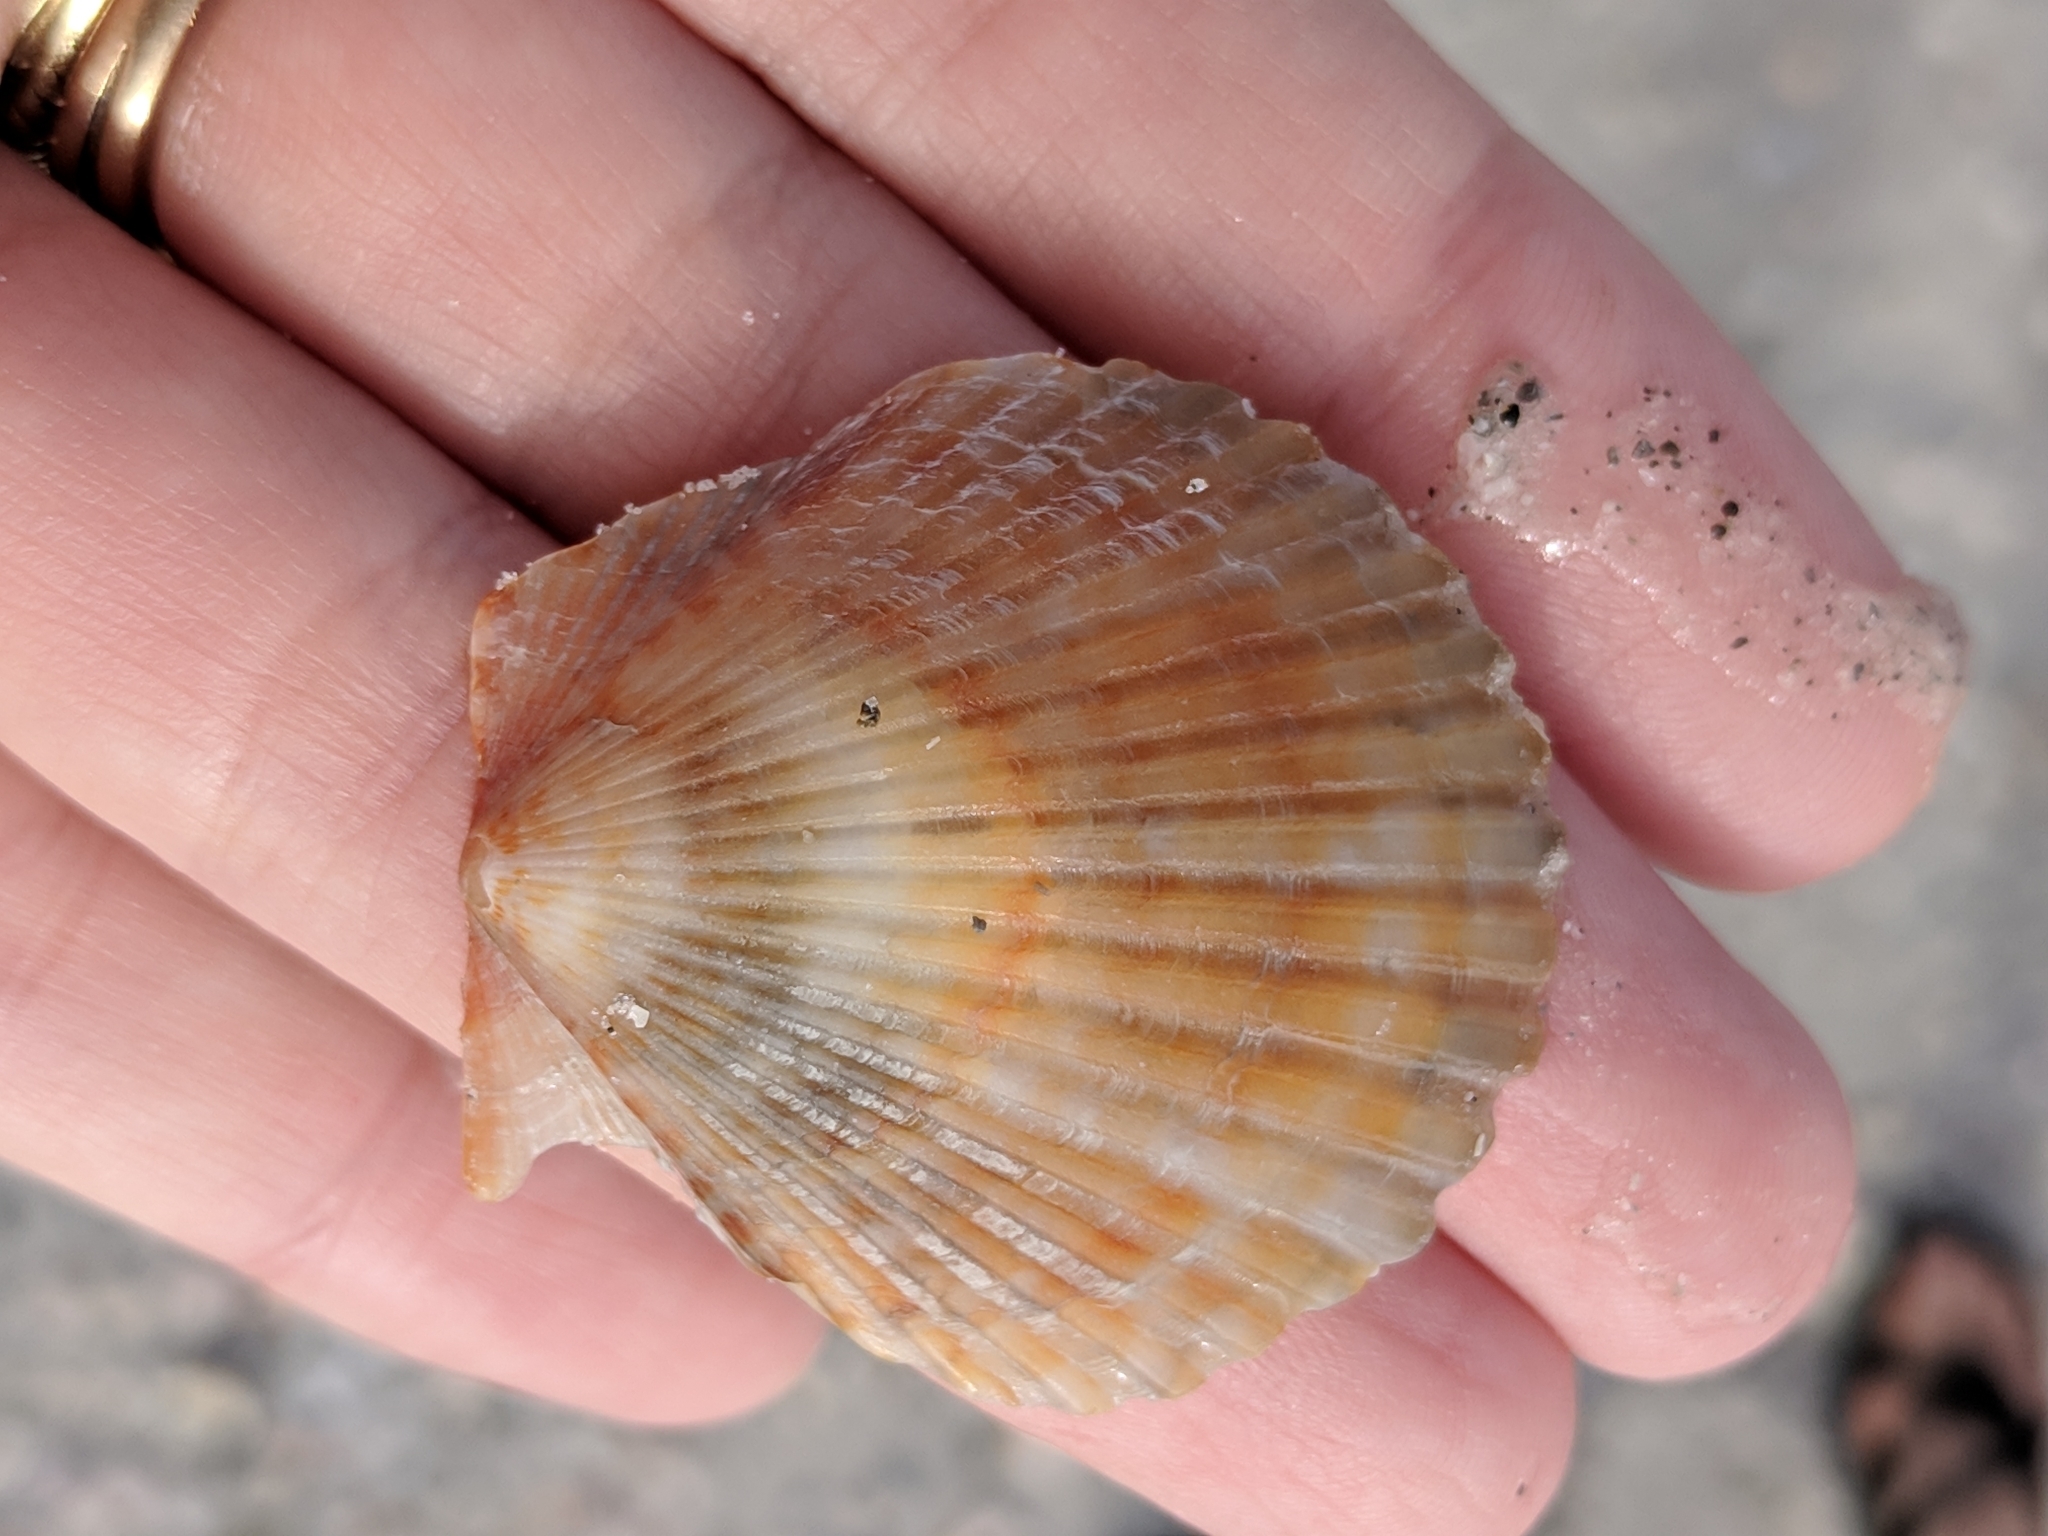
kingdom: Animalia
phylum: Mollusca
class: Bivalvia
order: Pectinida
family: Pectinidae
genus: Argopecten
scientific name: Argopecten irradians
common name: Atlantic bay scallop
